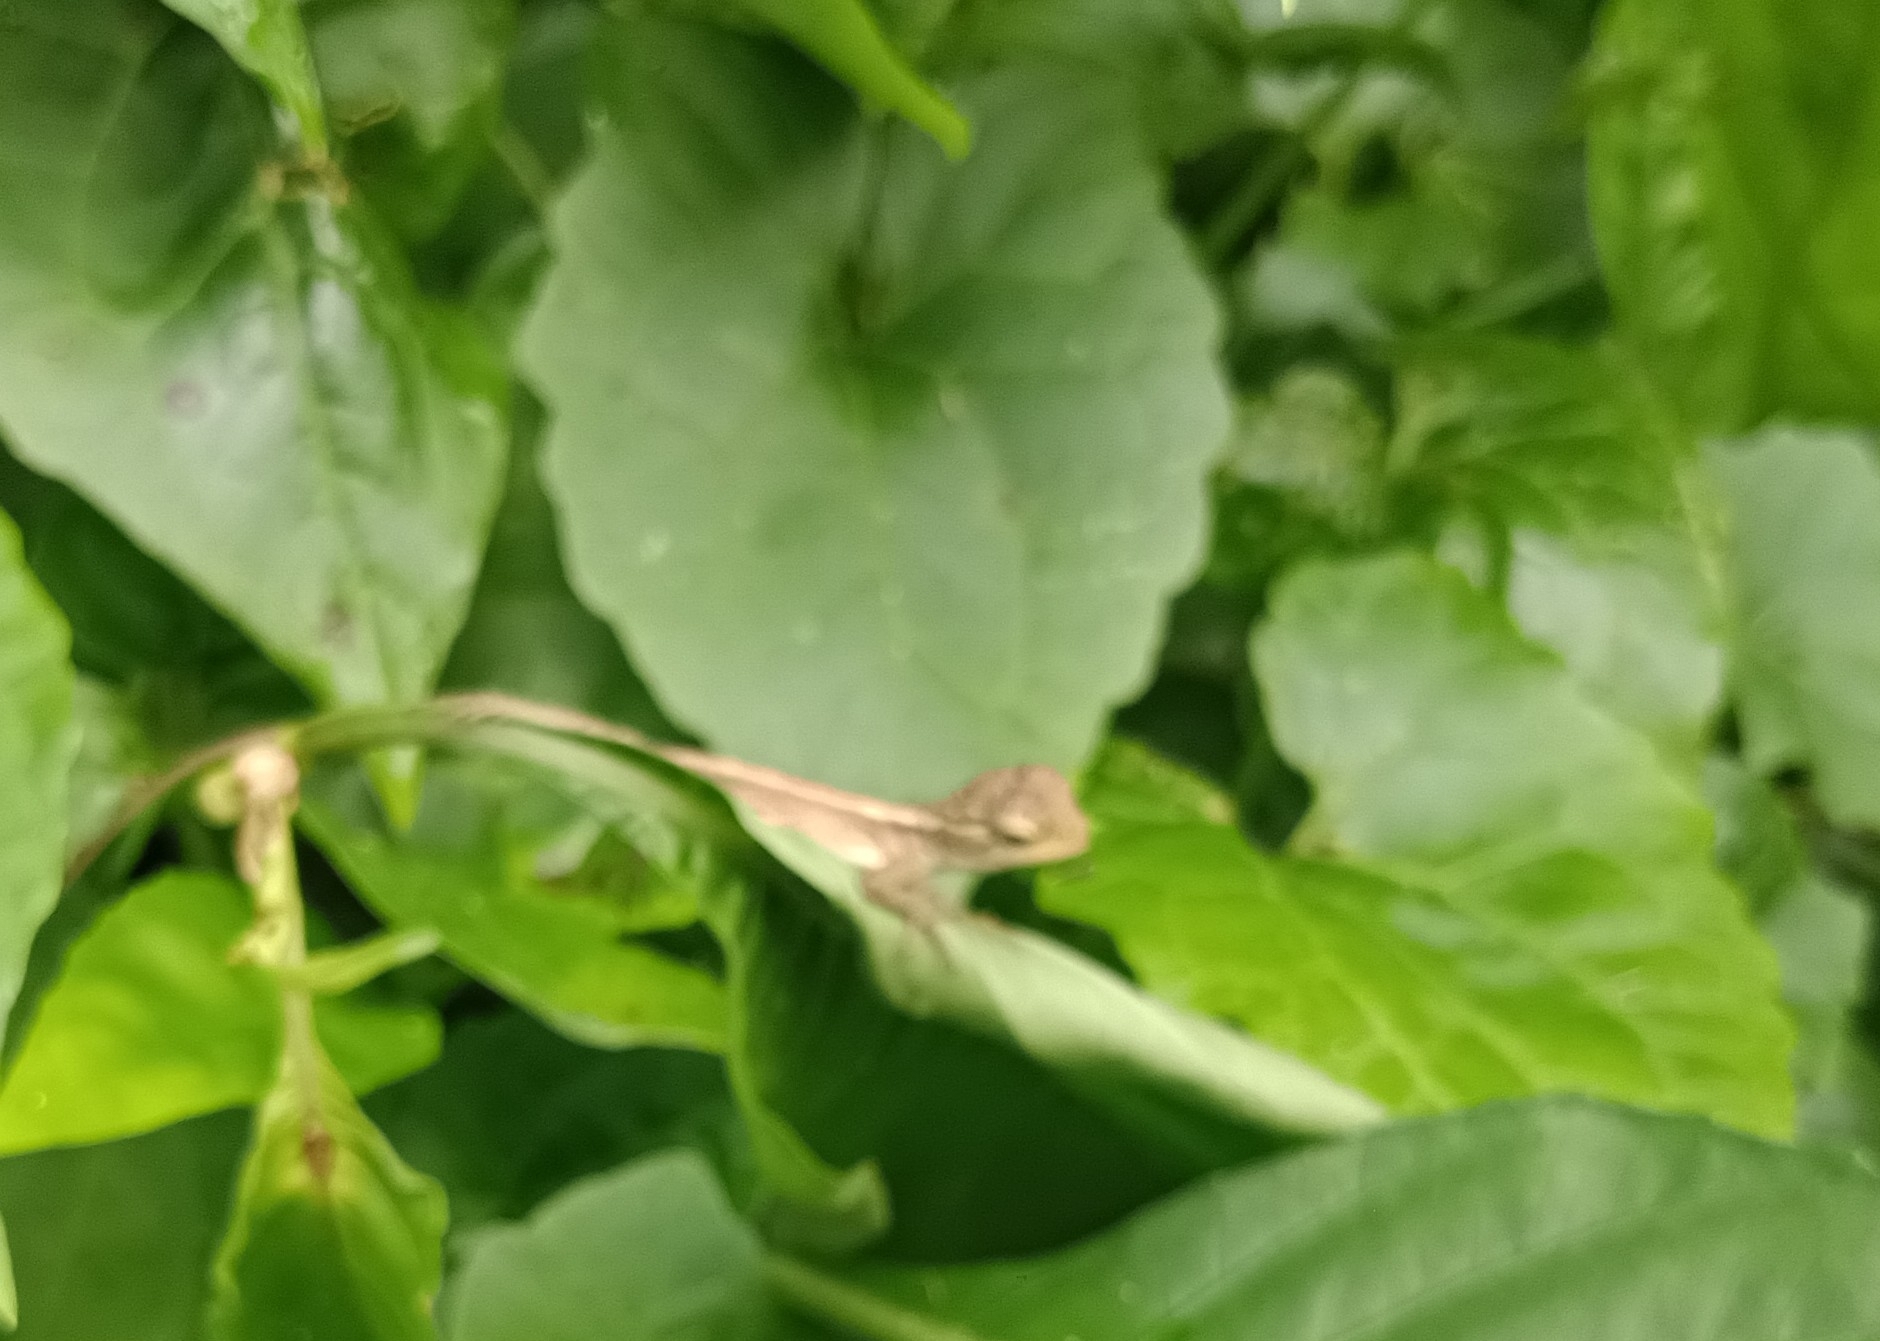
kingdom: Animalia
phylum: Chordata
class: Squamata
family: Agamidae
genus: Calotes
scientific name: Calotes versicolor
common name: Oriental garden lizard
